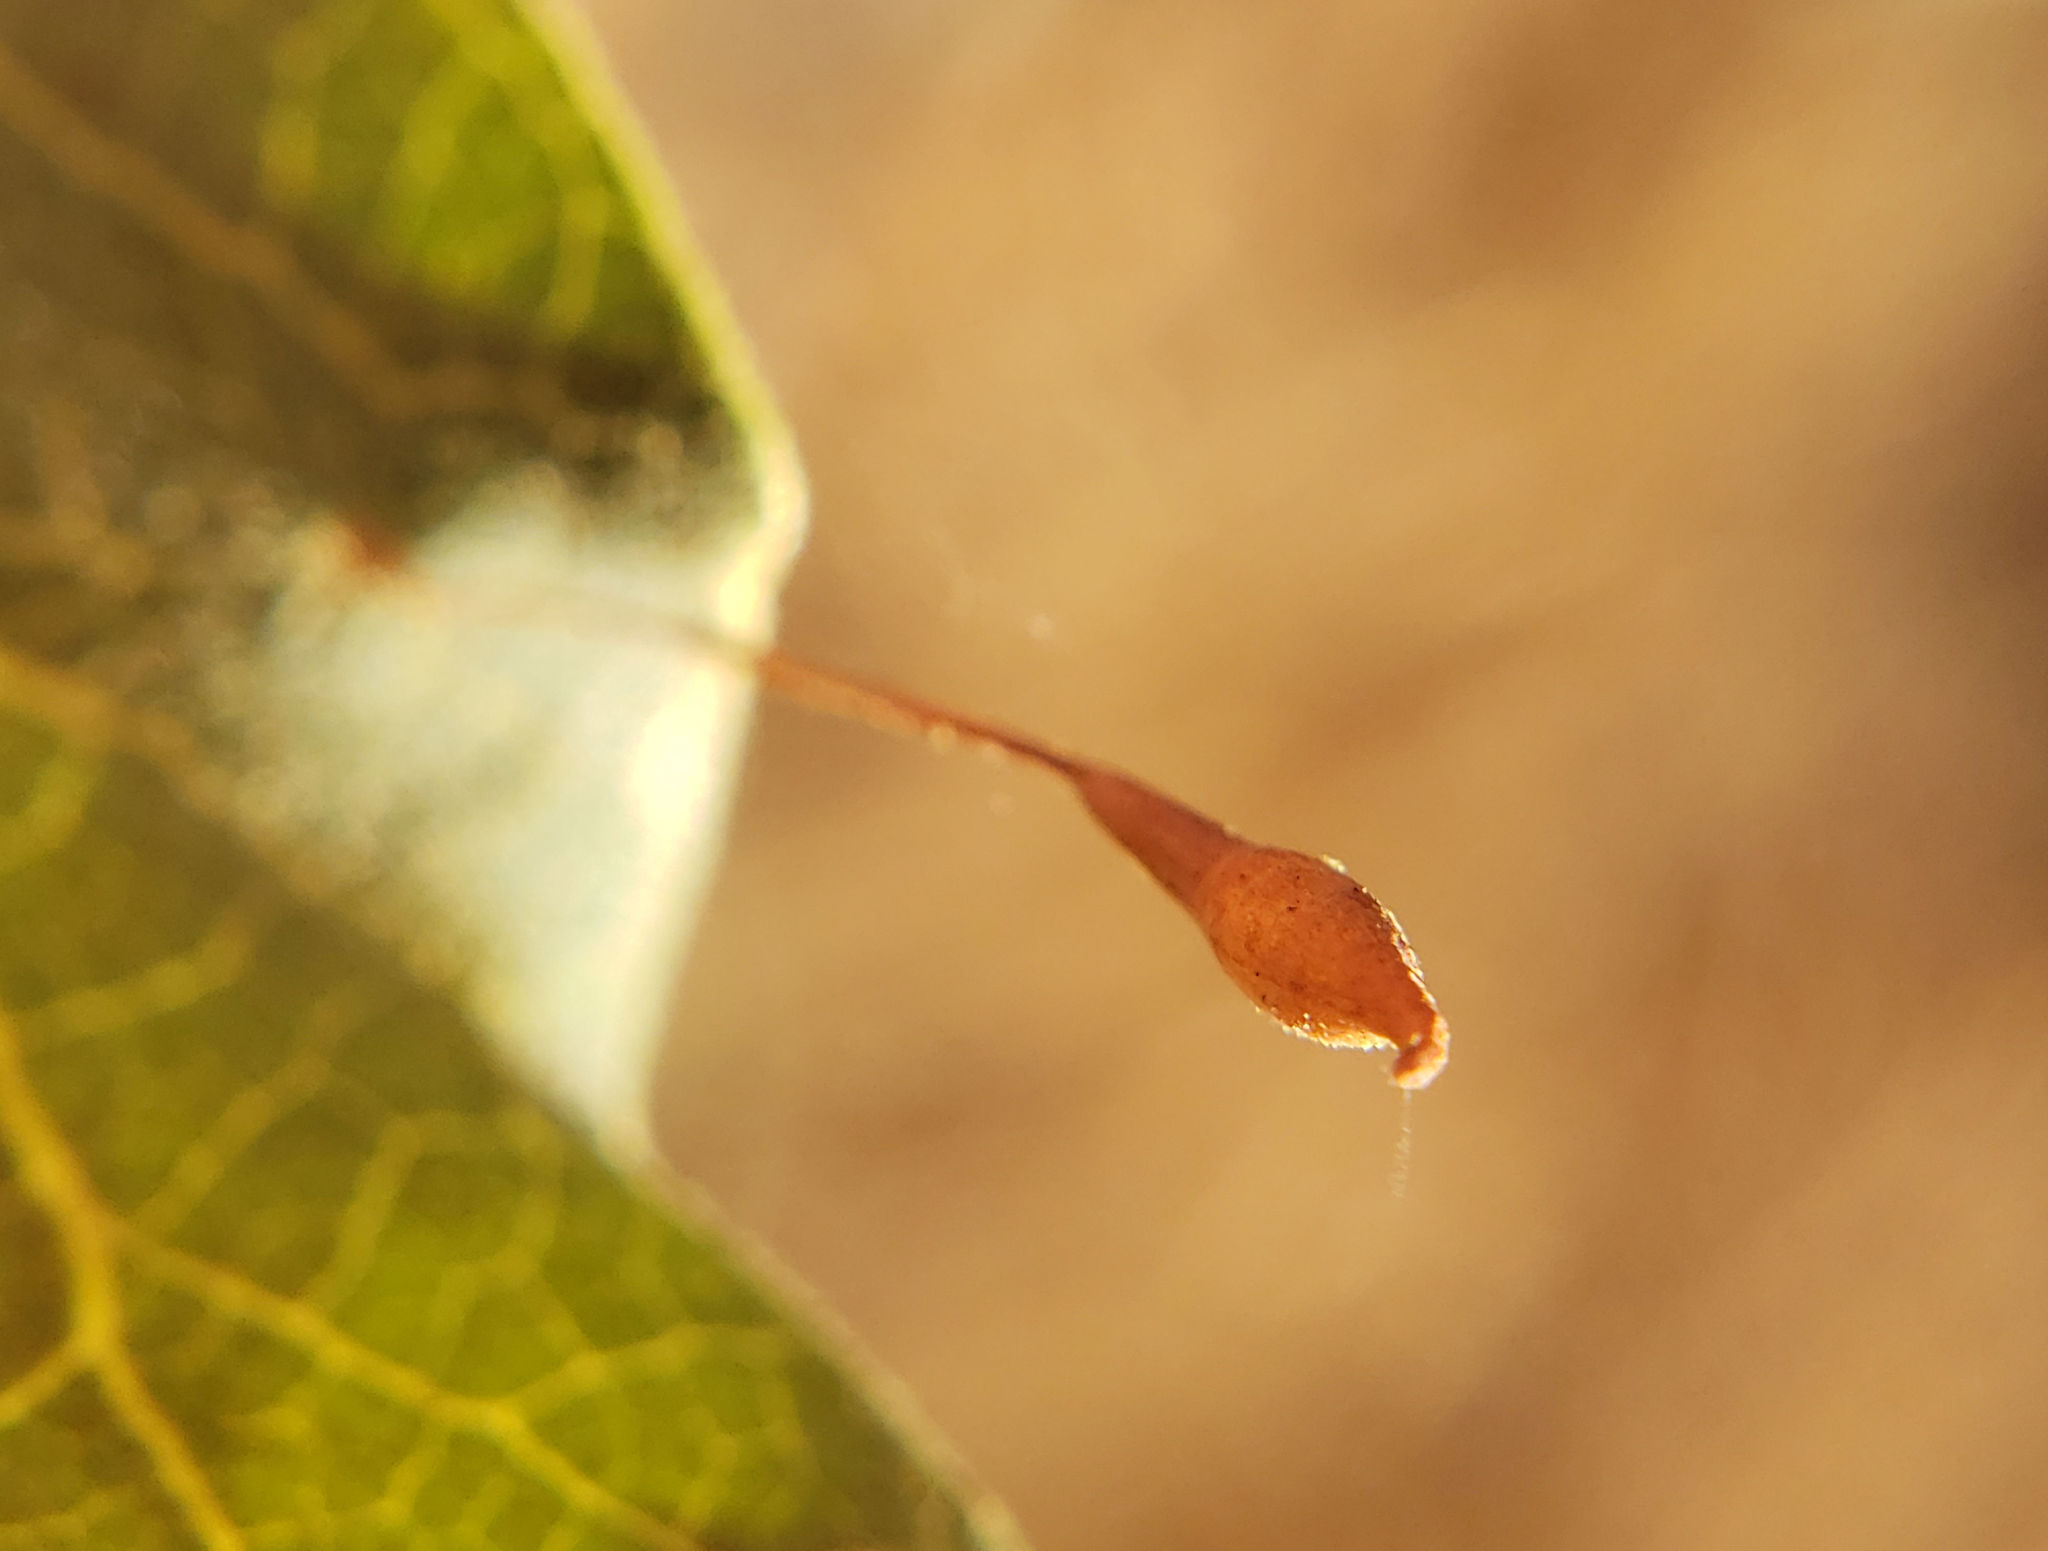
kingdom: Animalia
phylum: Arthropoda
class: Insecta
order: Hymenoptera
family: Cynipidae
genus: Andricus
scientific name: Andricus
